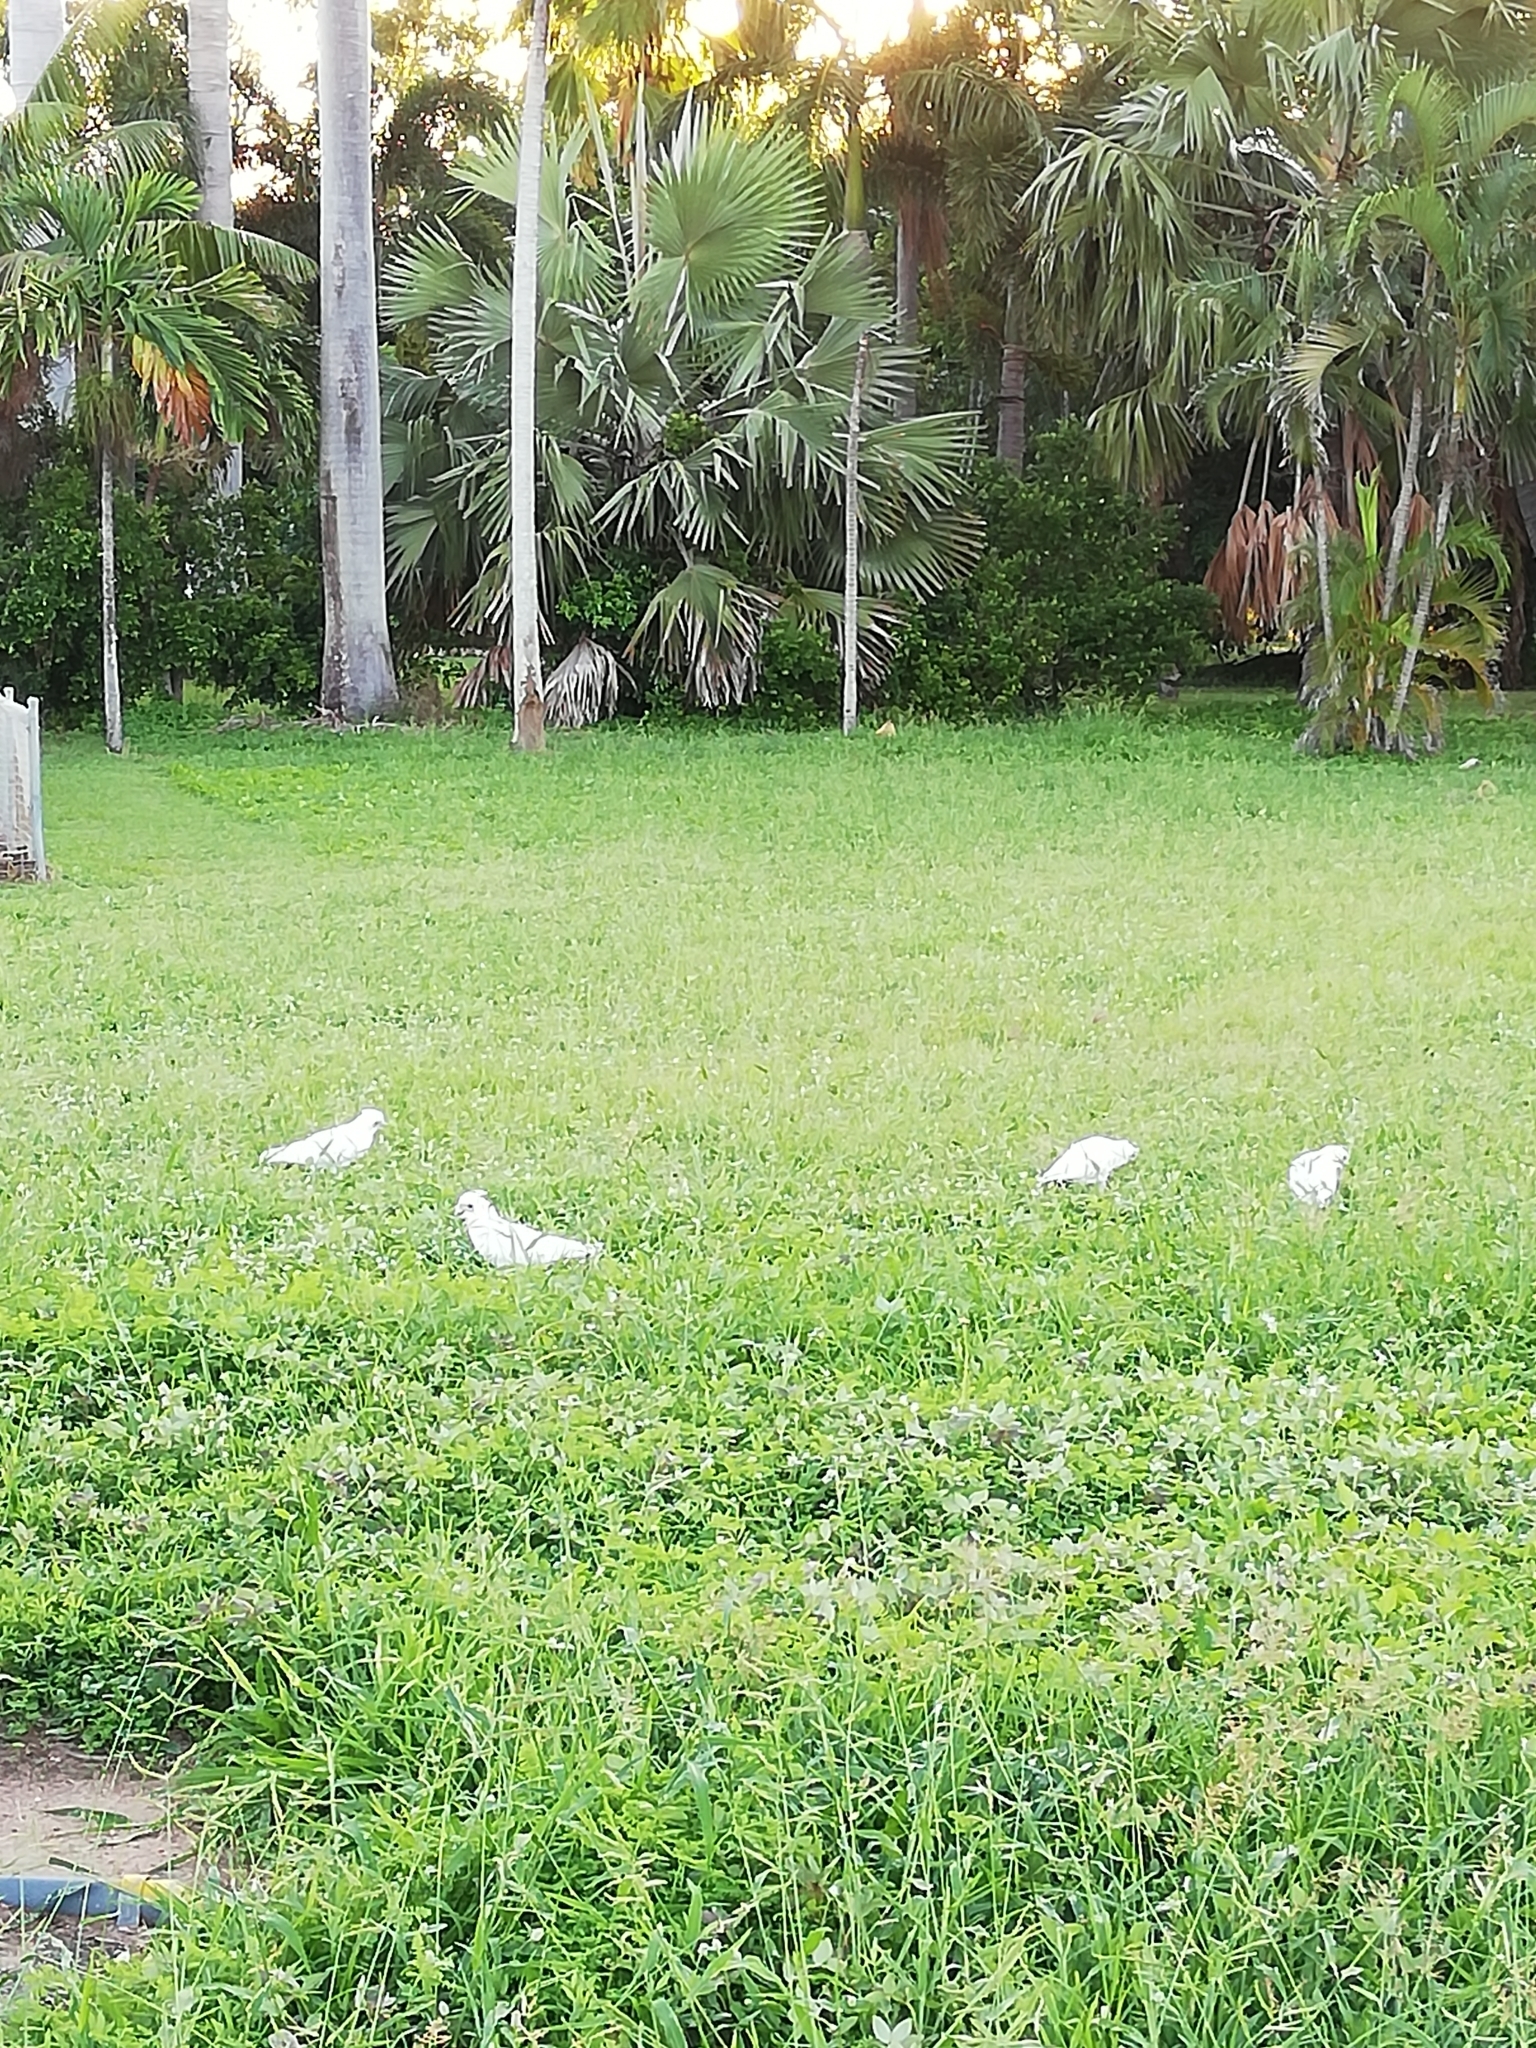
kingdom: Animalia
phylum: Chordata
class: Aves
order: Psittaciformes
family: Psittacidae
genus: Cacatua
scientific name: Cacatua sanguinea
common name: Little corella
